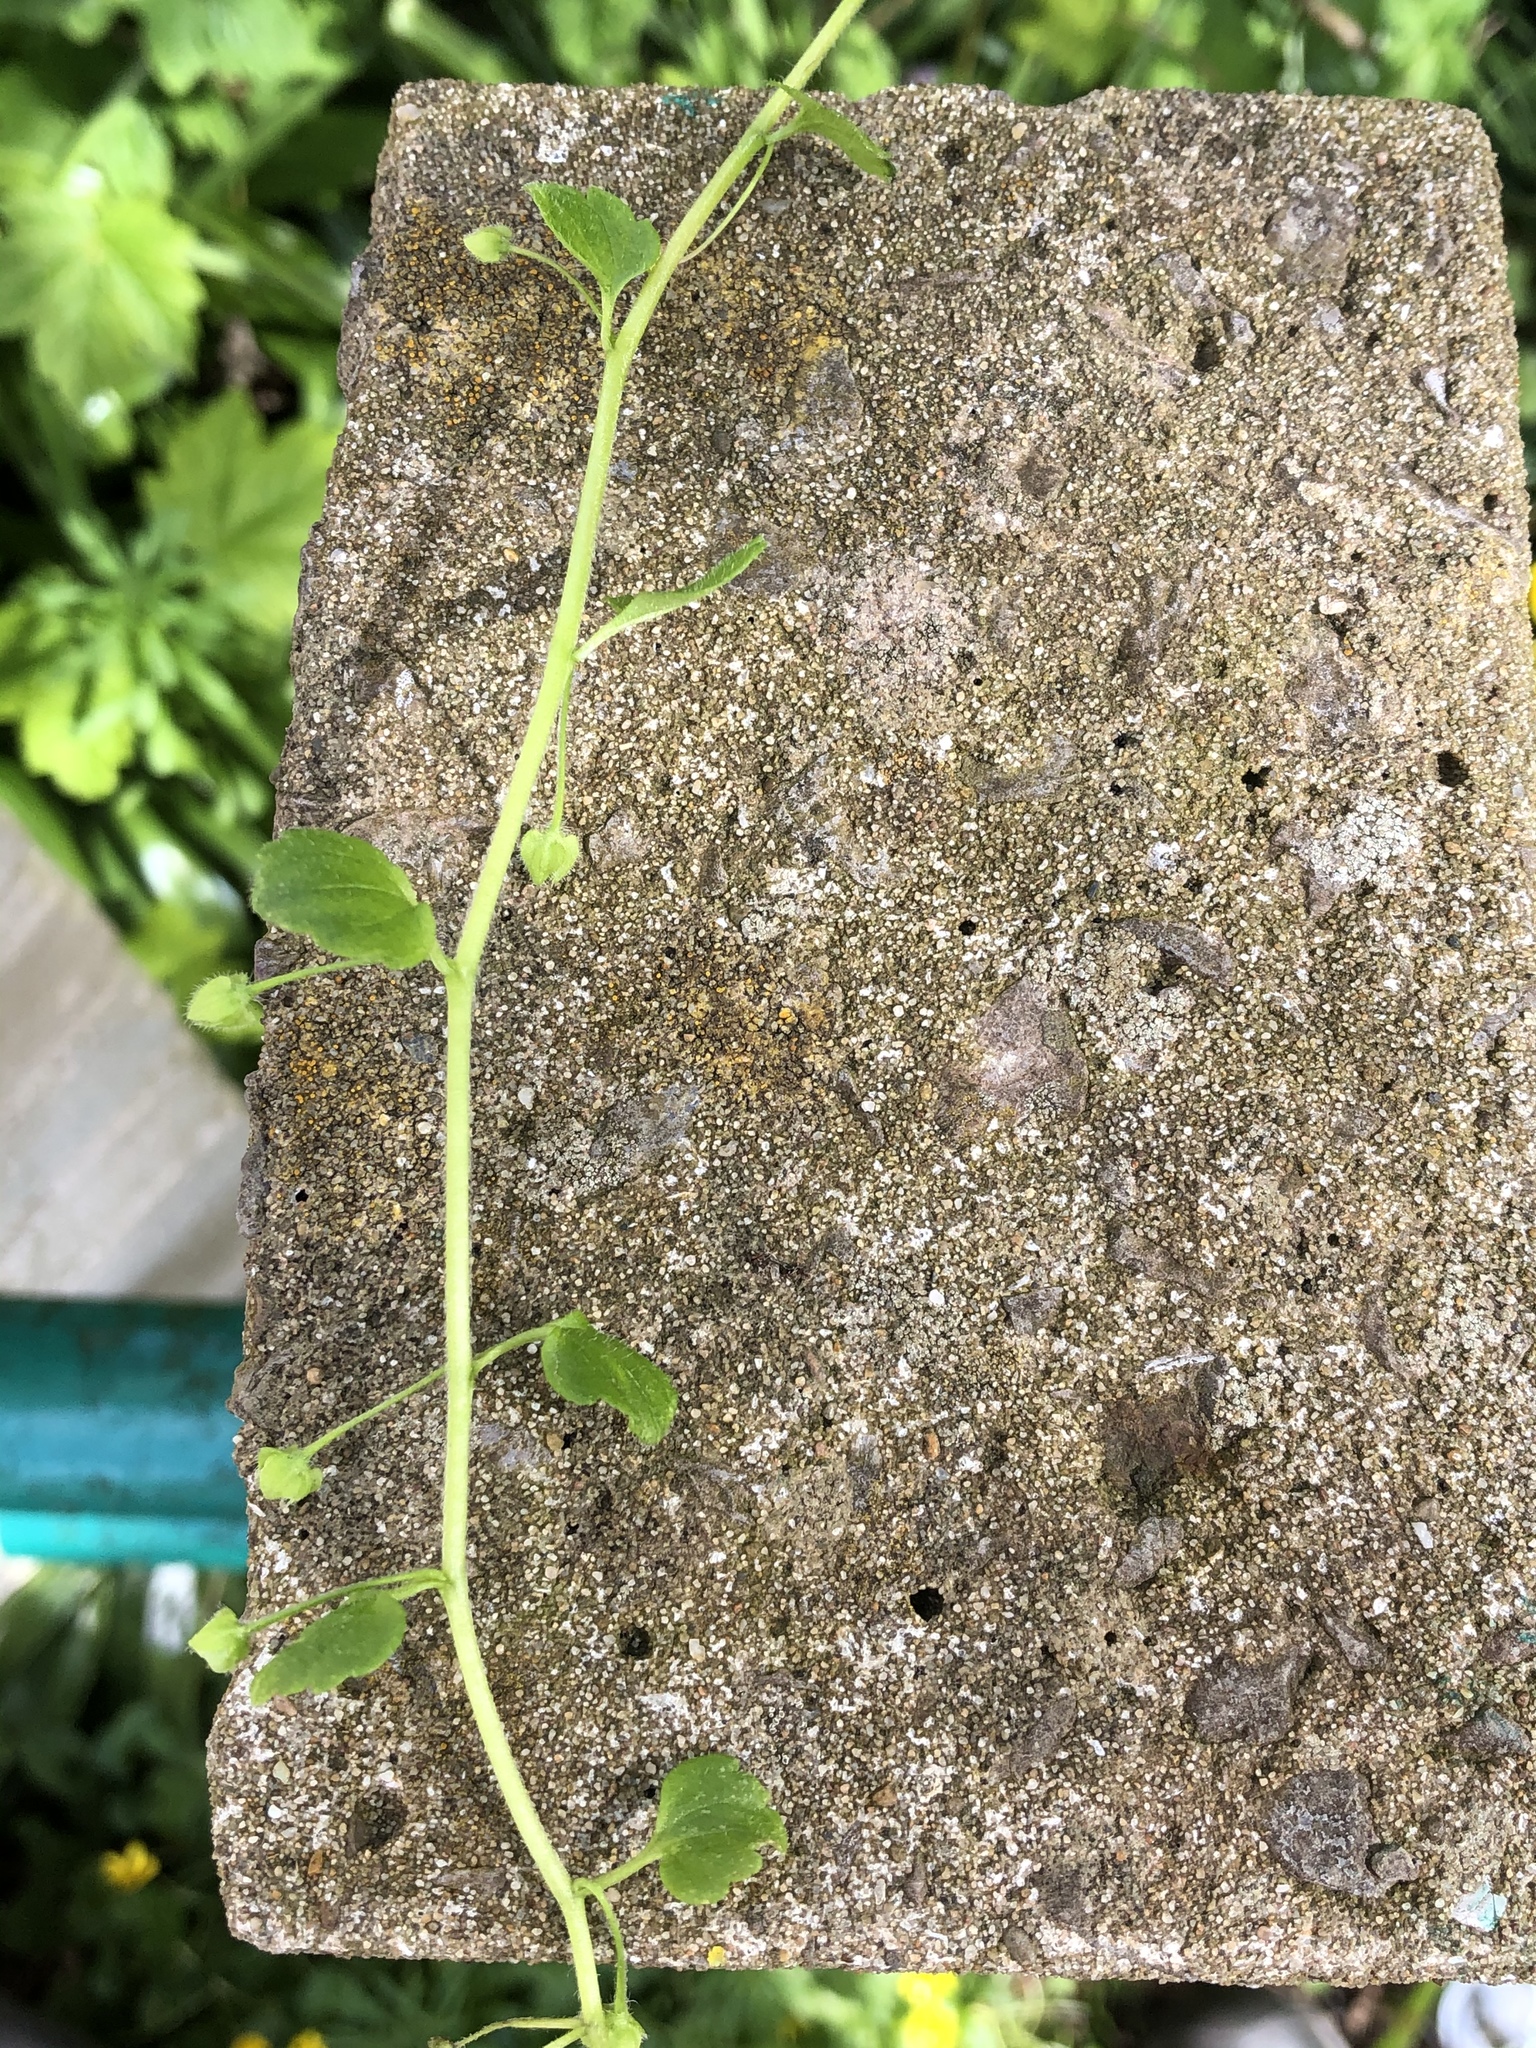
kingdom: Plantae
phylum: Tracheophyta
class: Magnoliopsida
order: Lamiales
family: Plantaginaceae
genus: Veronica
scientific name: Veronica hederifolia
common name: Ivy-leaved speedwell
